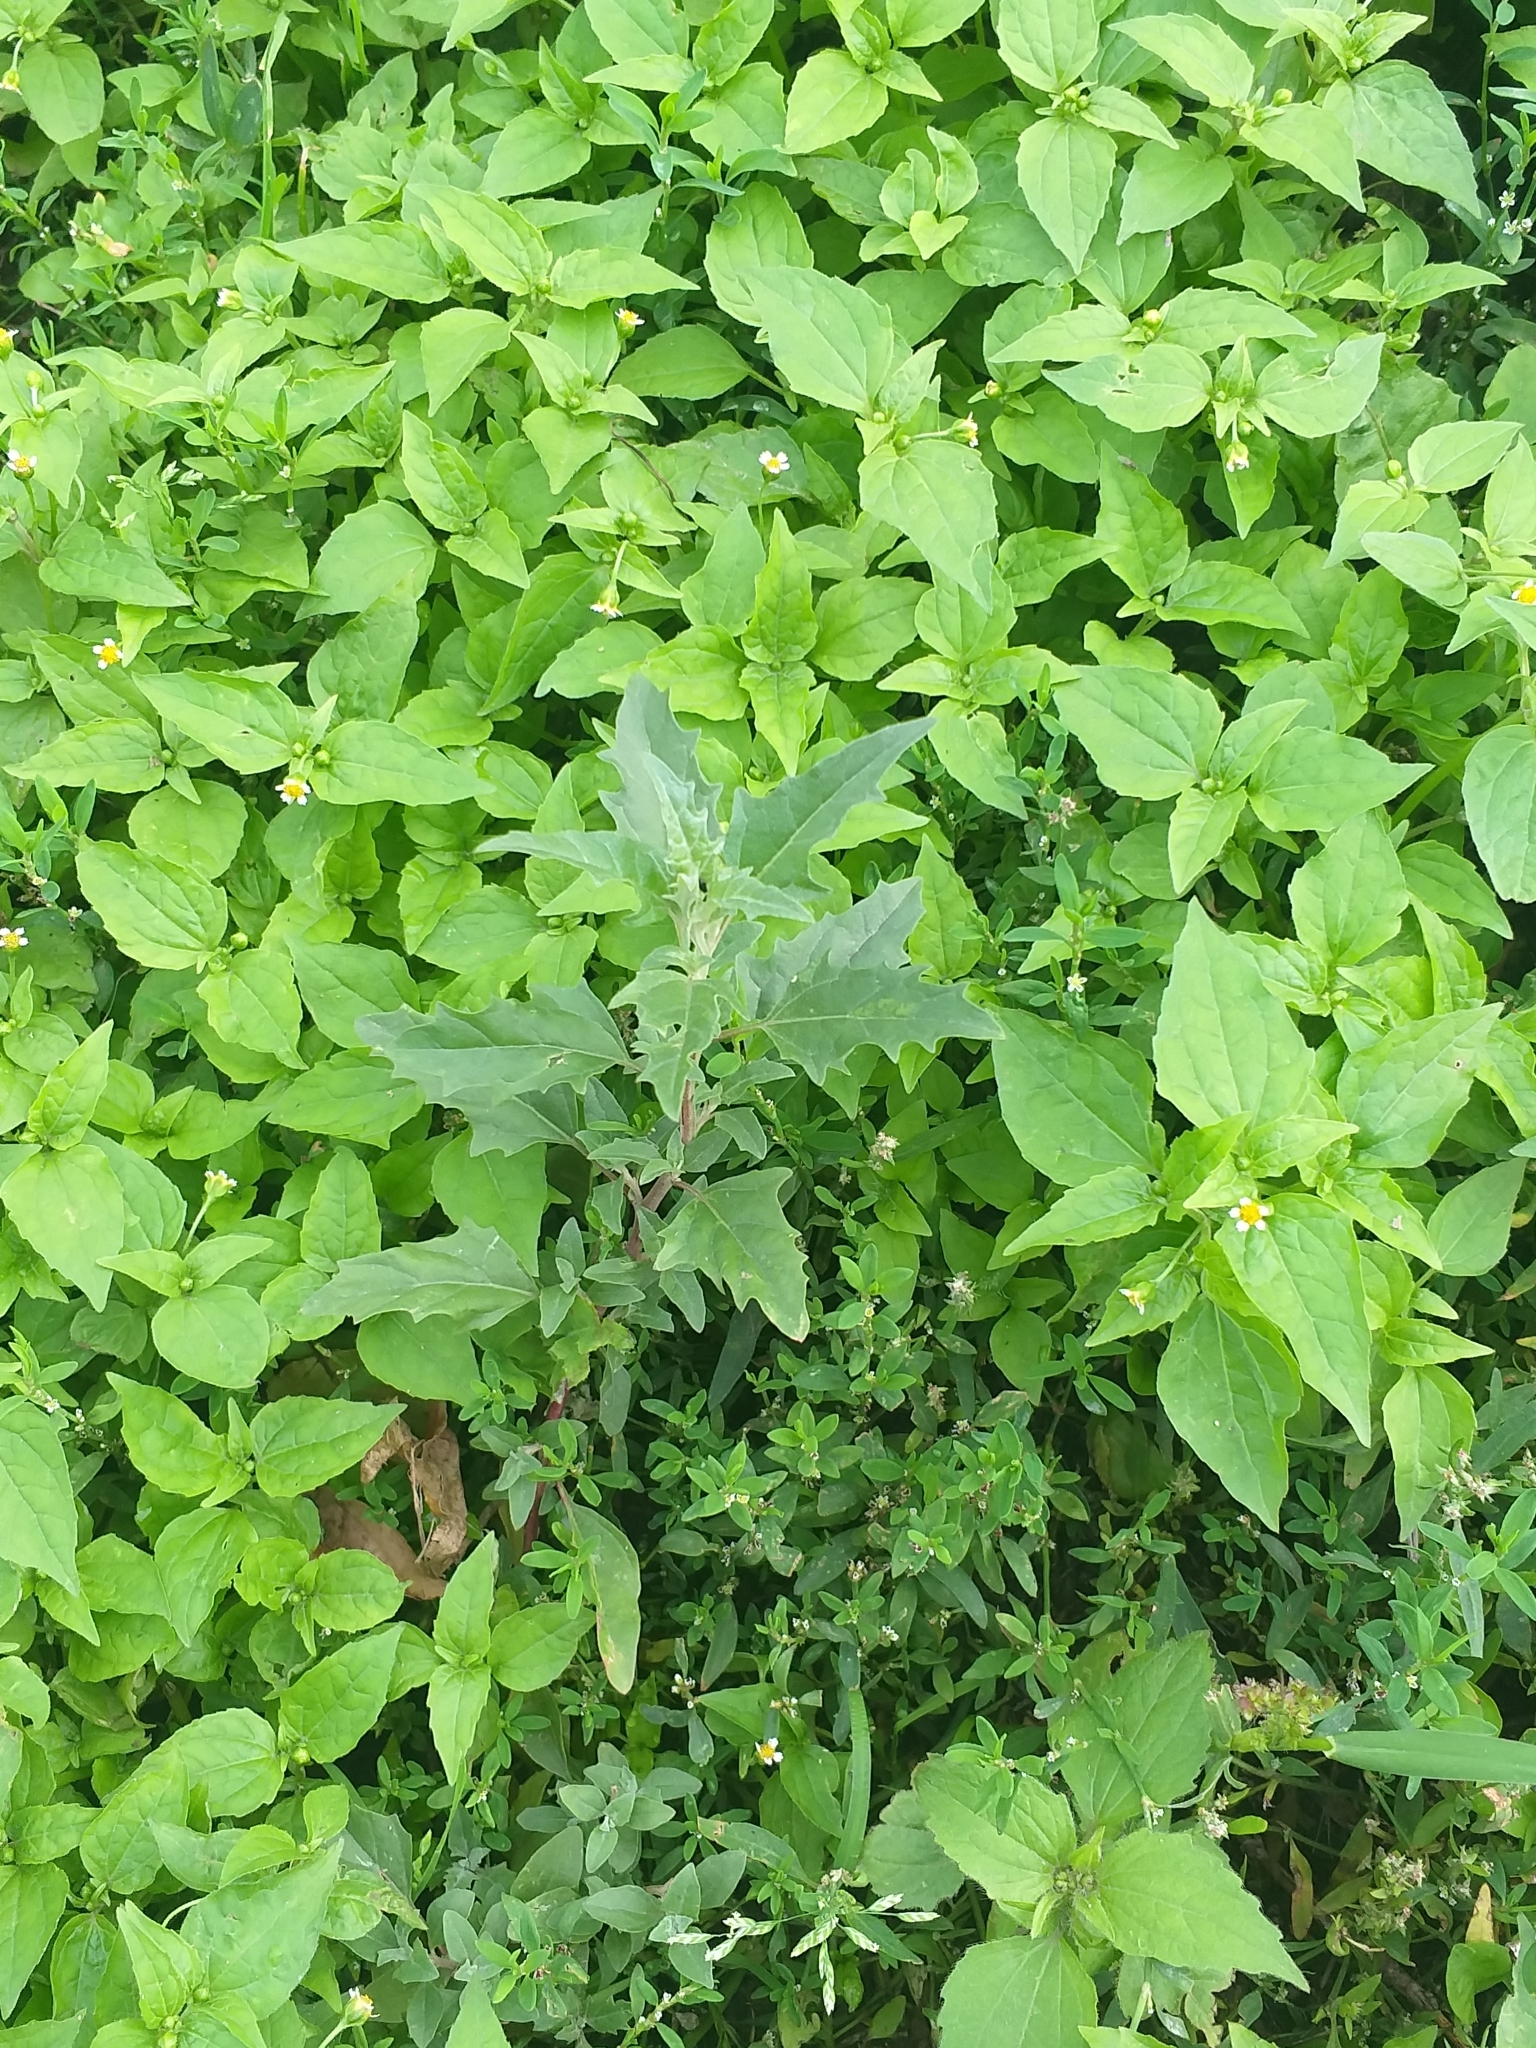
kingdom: Plantae
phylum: Tracheophyta
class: Magnoliopsida
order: Caryophyllales
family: Amaranthaceae
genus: Atriplex
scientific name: Atriplex tatarica
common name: Tatarian orache
